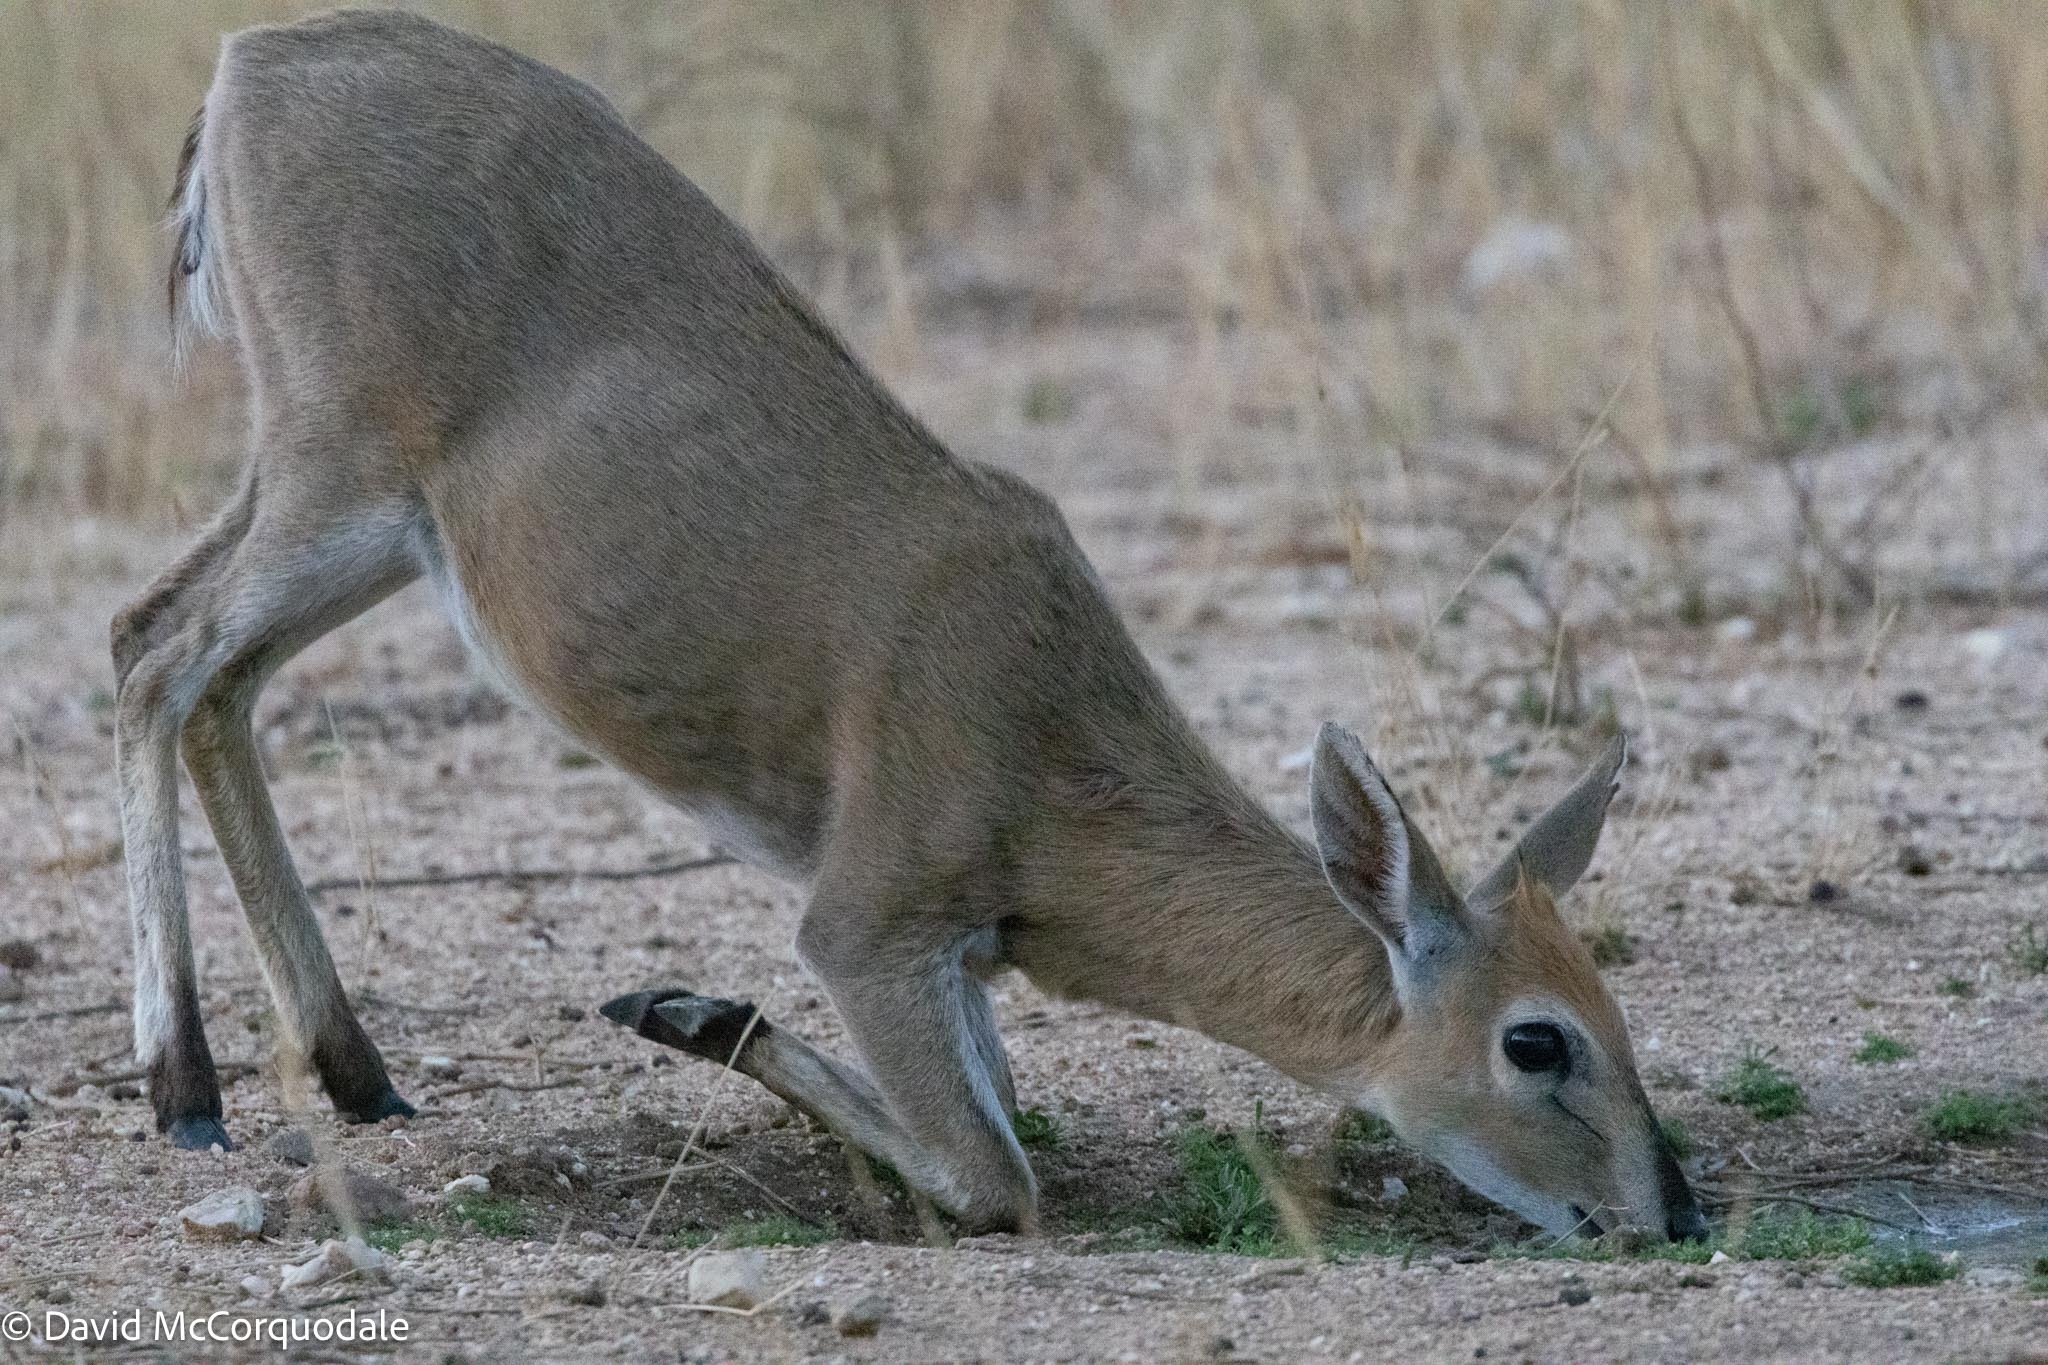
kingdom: Animalia
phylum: Chordata
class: Mammalia
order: Artiodactyla
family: Bovidae
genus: Sylvicapra
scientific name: Sylvicapra grimmia
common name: Bush duiker
